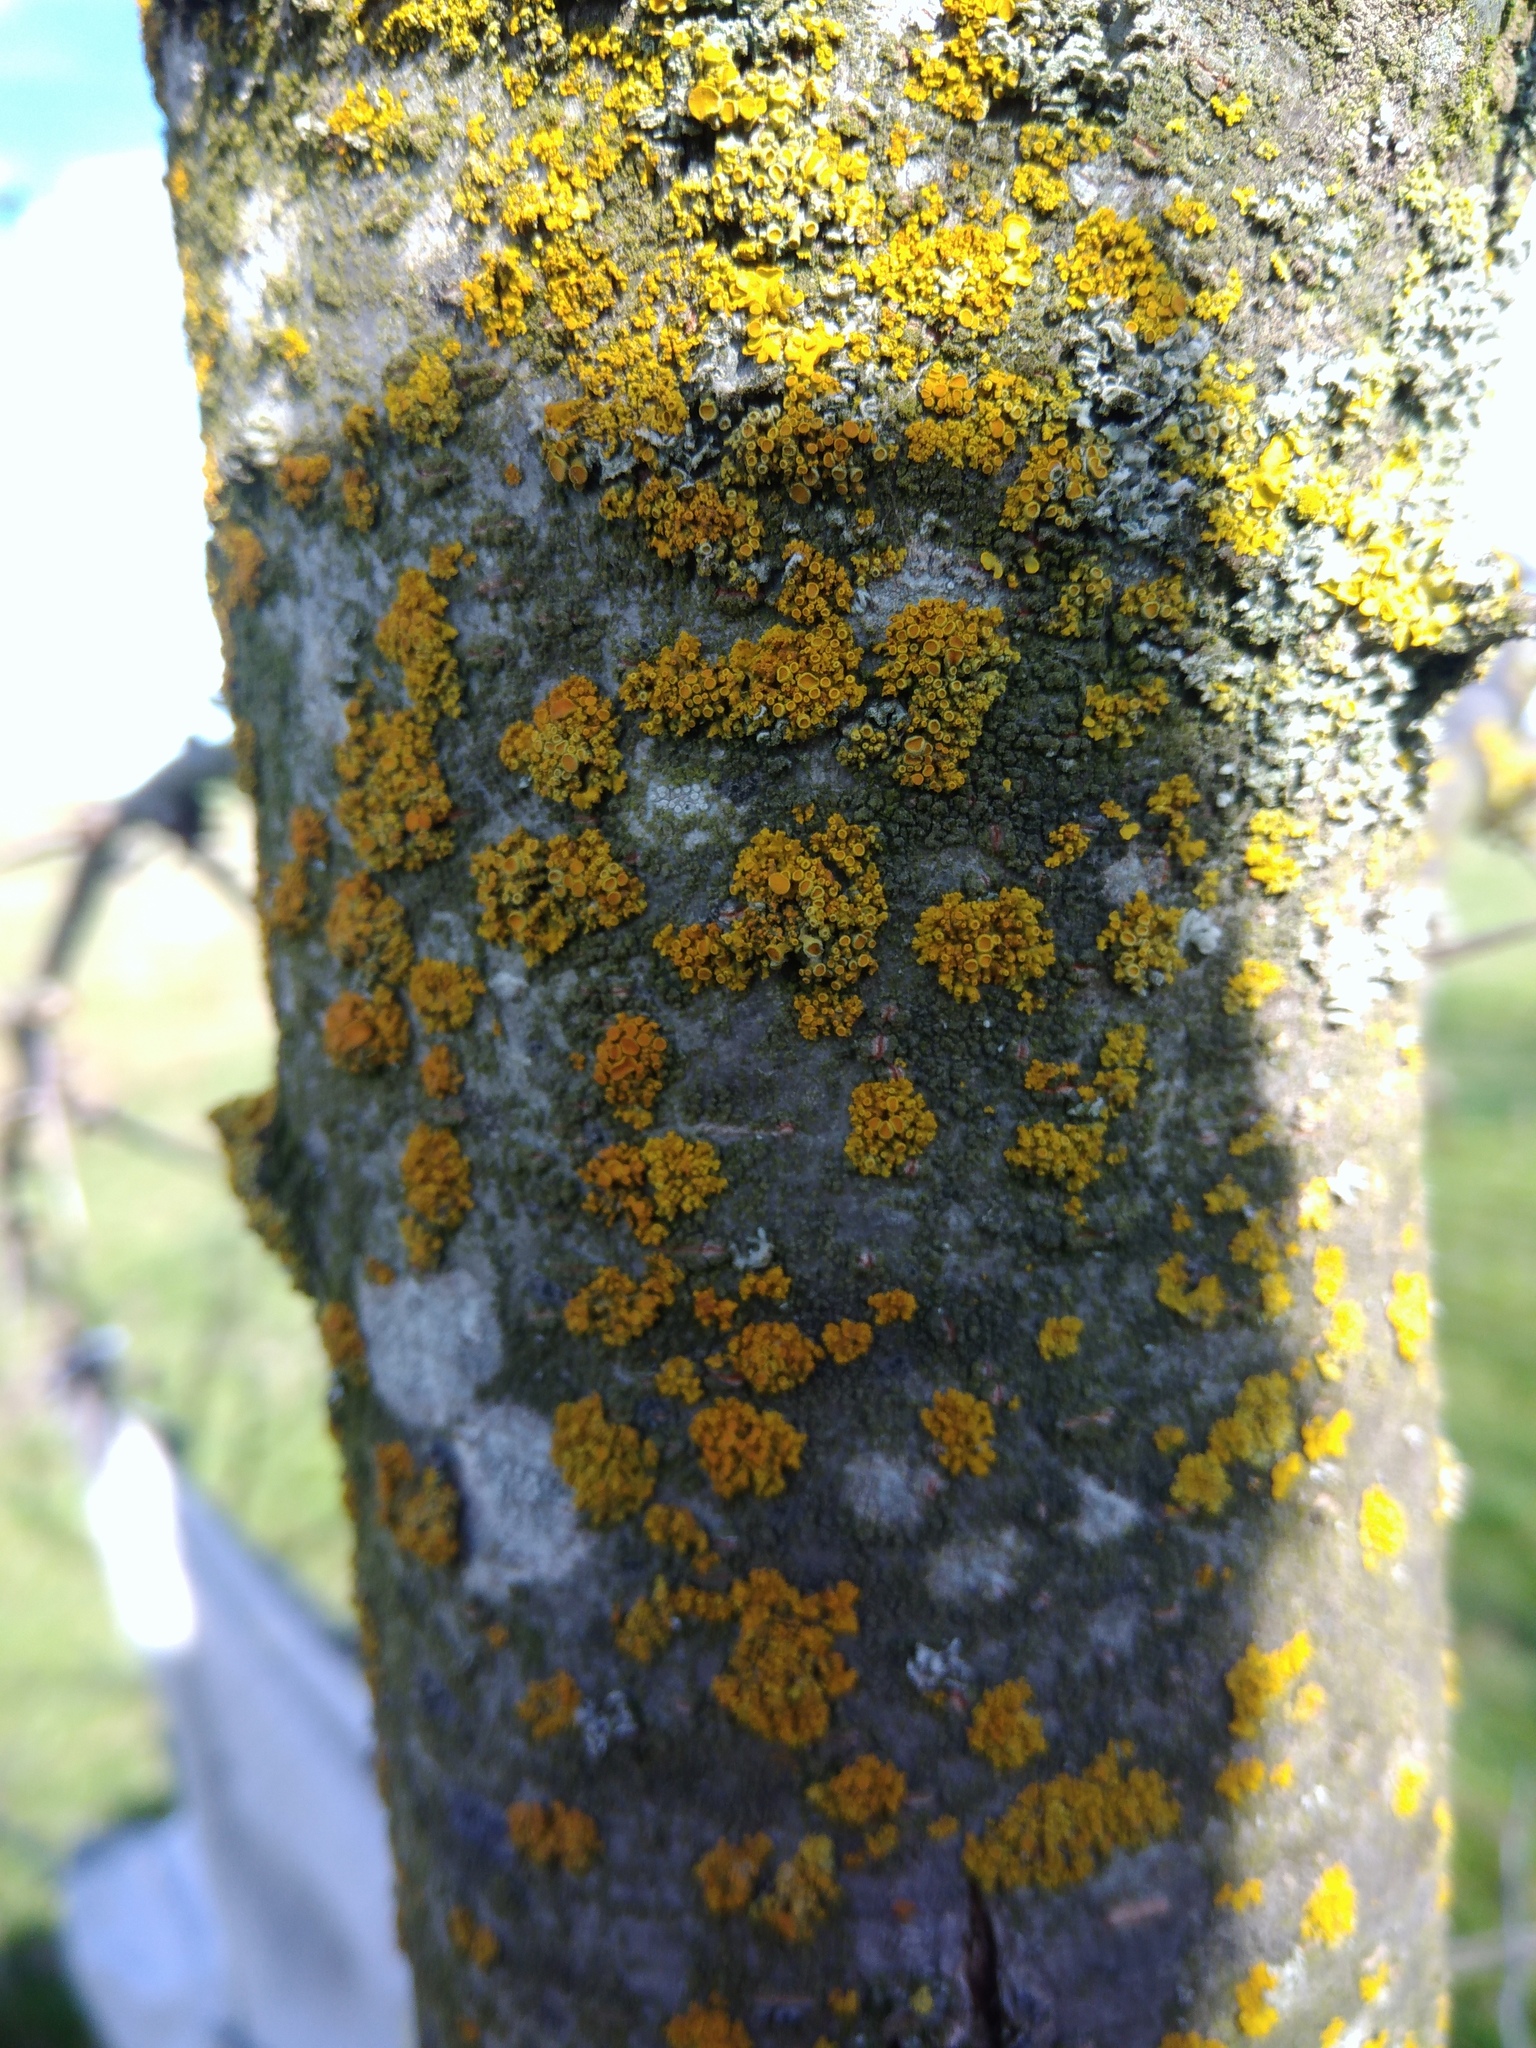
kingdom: Fungi
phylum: Ascomycota
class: Lecanoromycetes
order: Teloschistales
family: Teloschistaceae
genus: Polycauliona
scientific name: Polycauliona polycarpa
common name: Pin-cushion sunburst lichen
